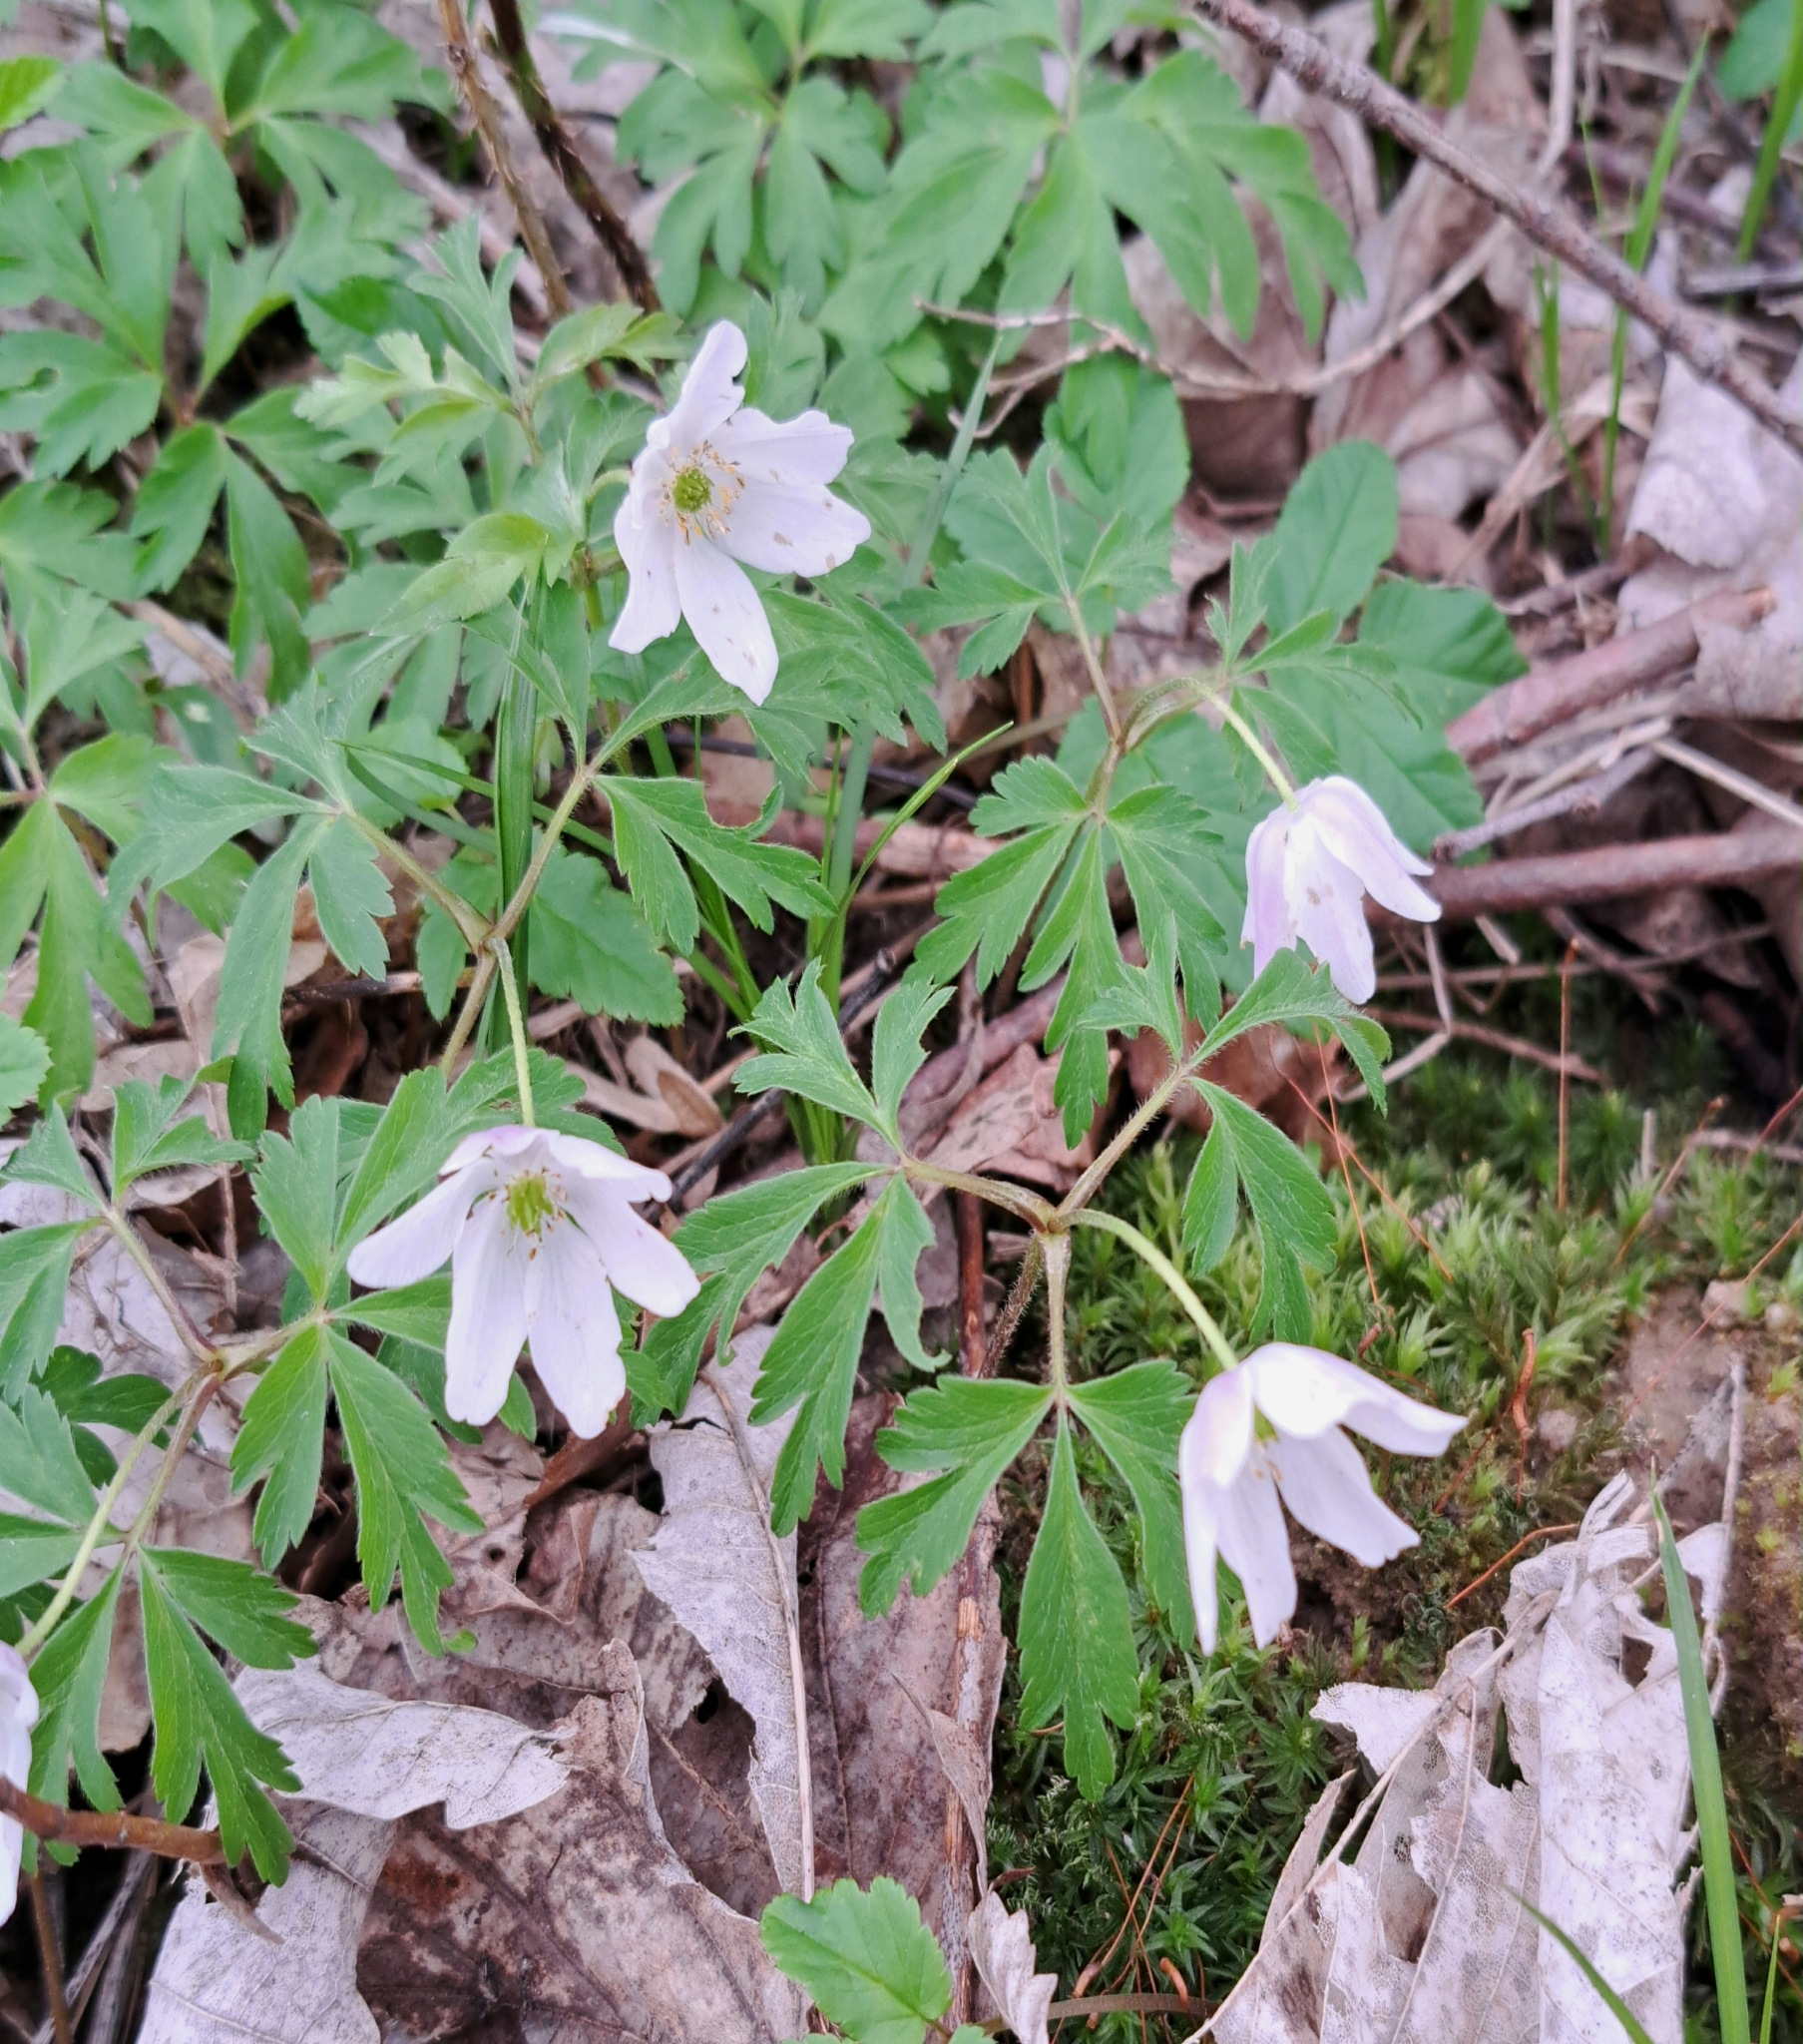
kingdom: Plantae
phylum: Tracheophyta
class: Magnoliopsida
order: Ranunculales
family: Ranunculaceae
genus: Anemone
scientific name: Anemone nemorosa
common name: Wood anemone
